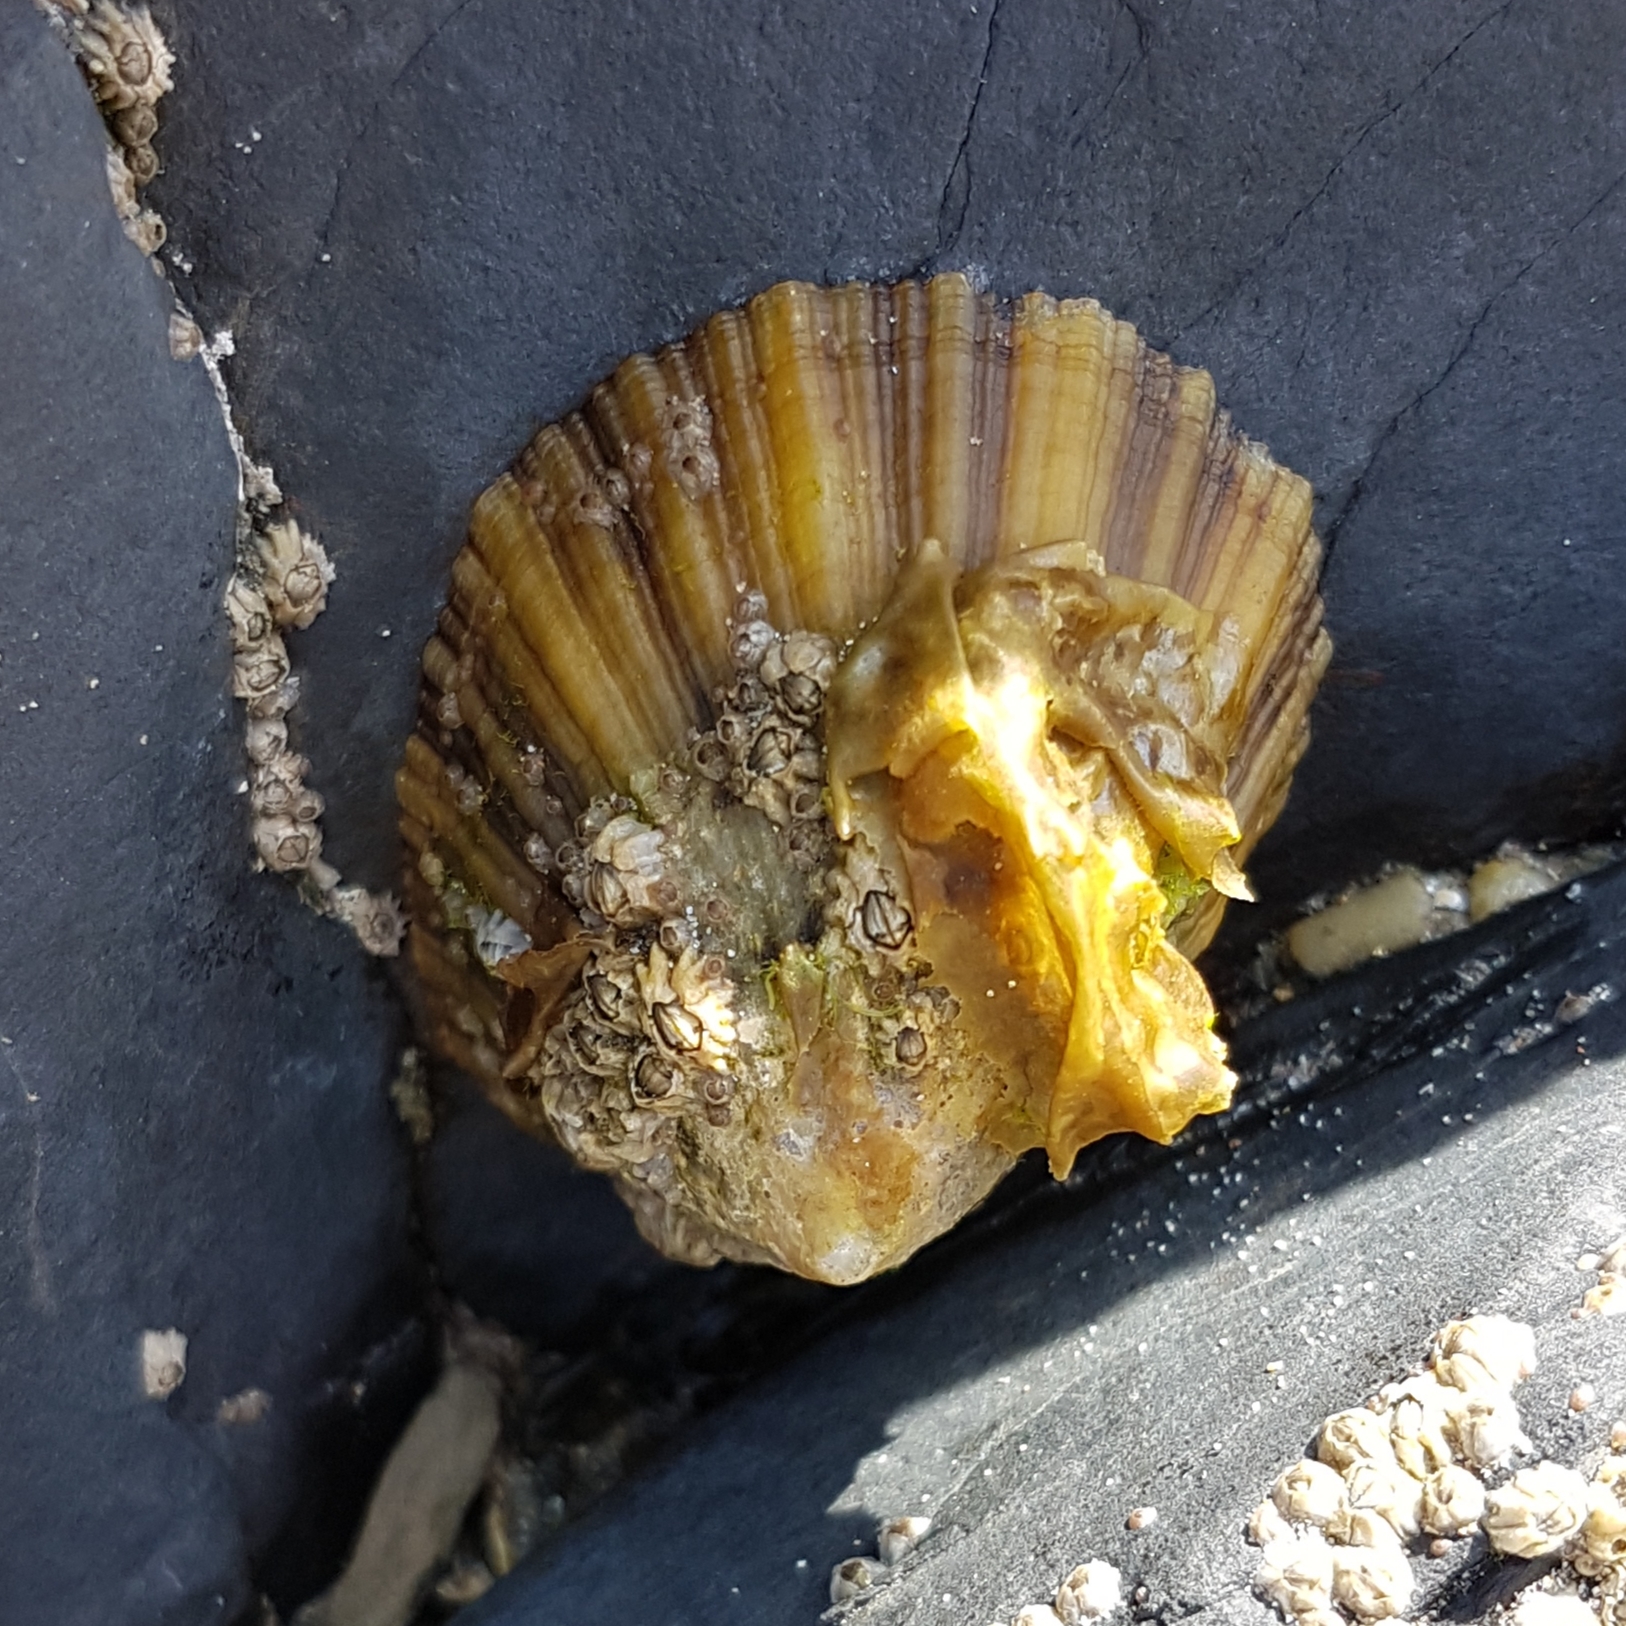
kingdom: Animalia
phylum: Mollusca
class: Gastropoda
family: Patellidae
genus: Patella
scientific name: Patella vulgata
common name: Common limpet
